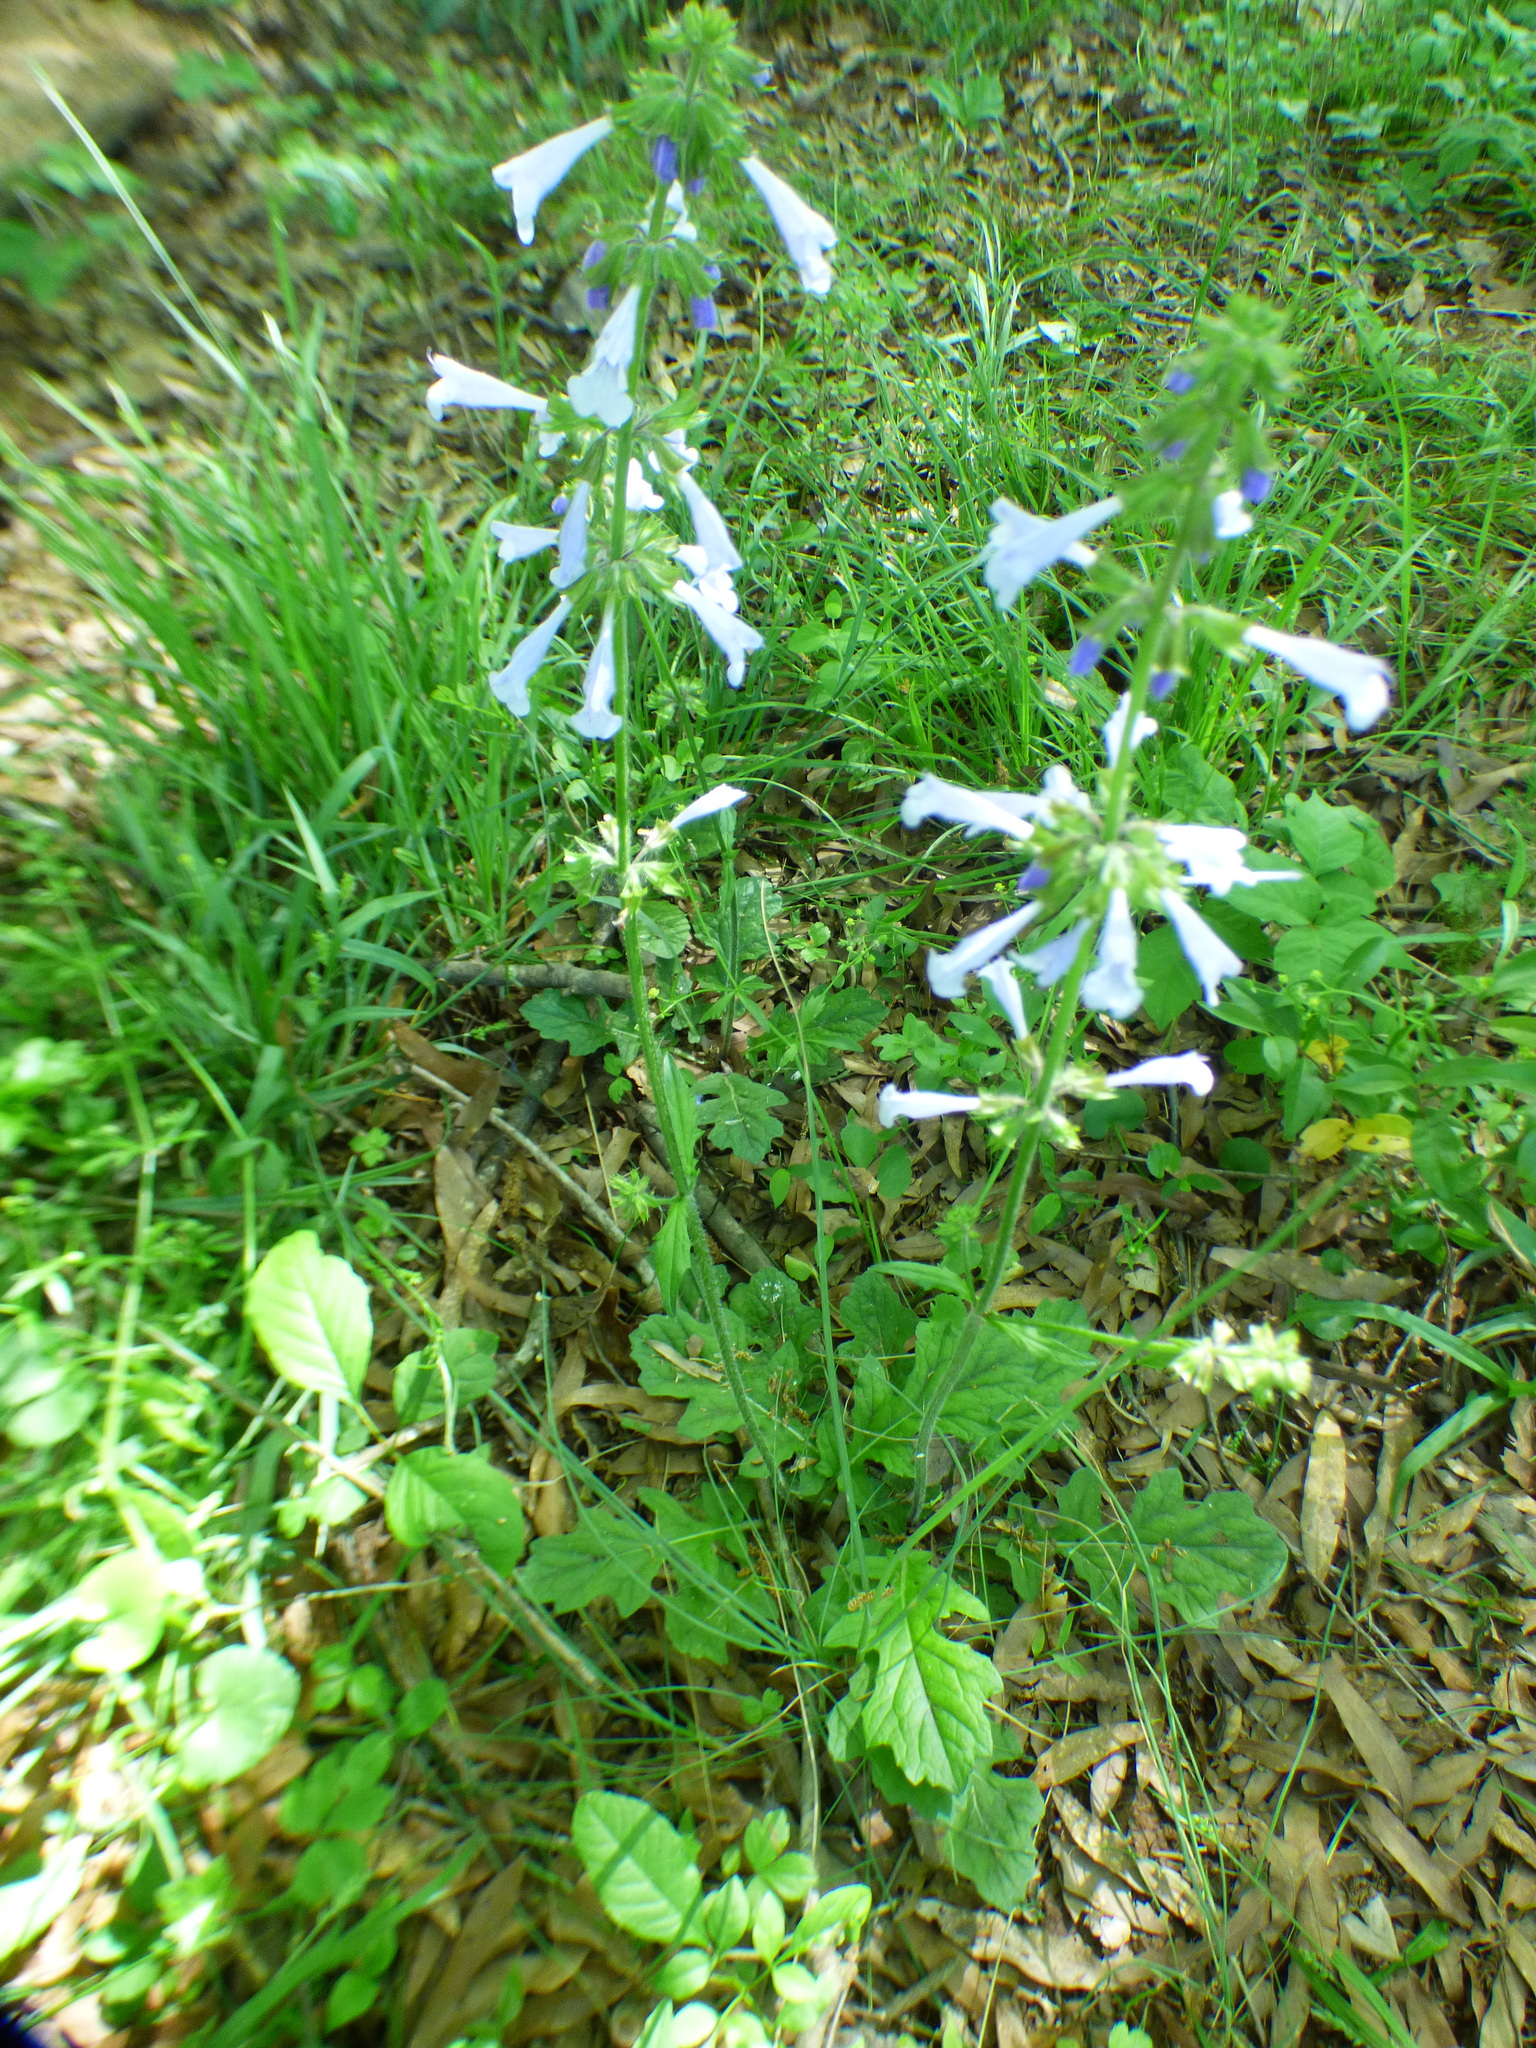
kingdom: Plantae
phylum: Tracheophyta
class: Magnoliopsida
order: Lamiales
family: Lamiaceae
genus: Salvia
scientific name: Salvia lyrata
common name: Cancerweed
